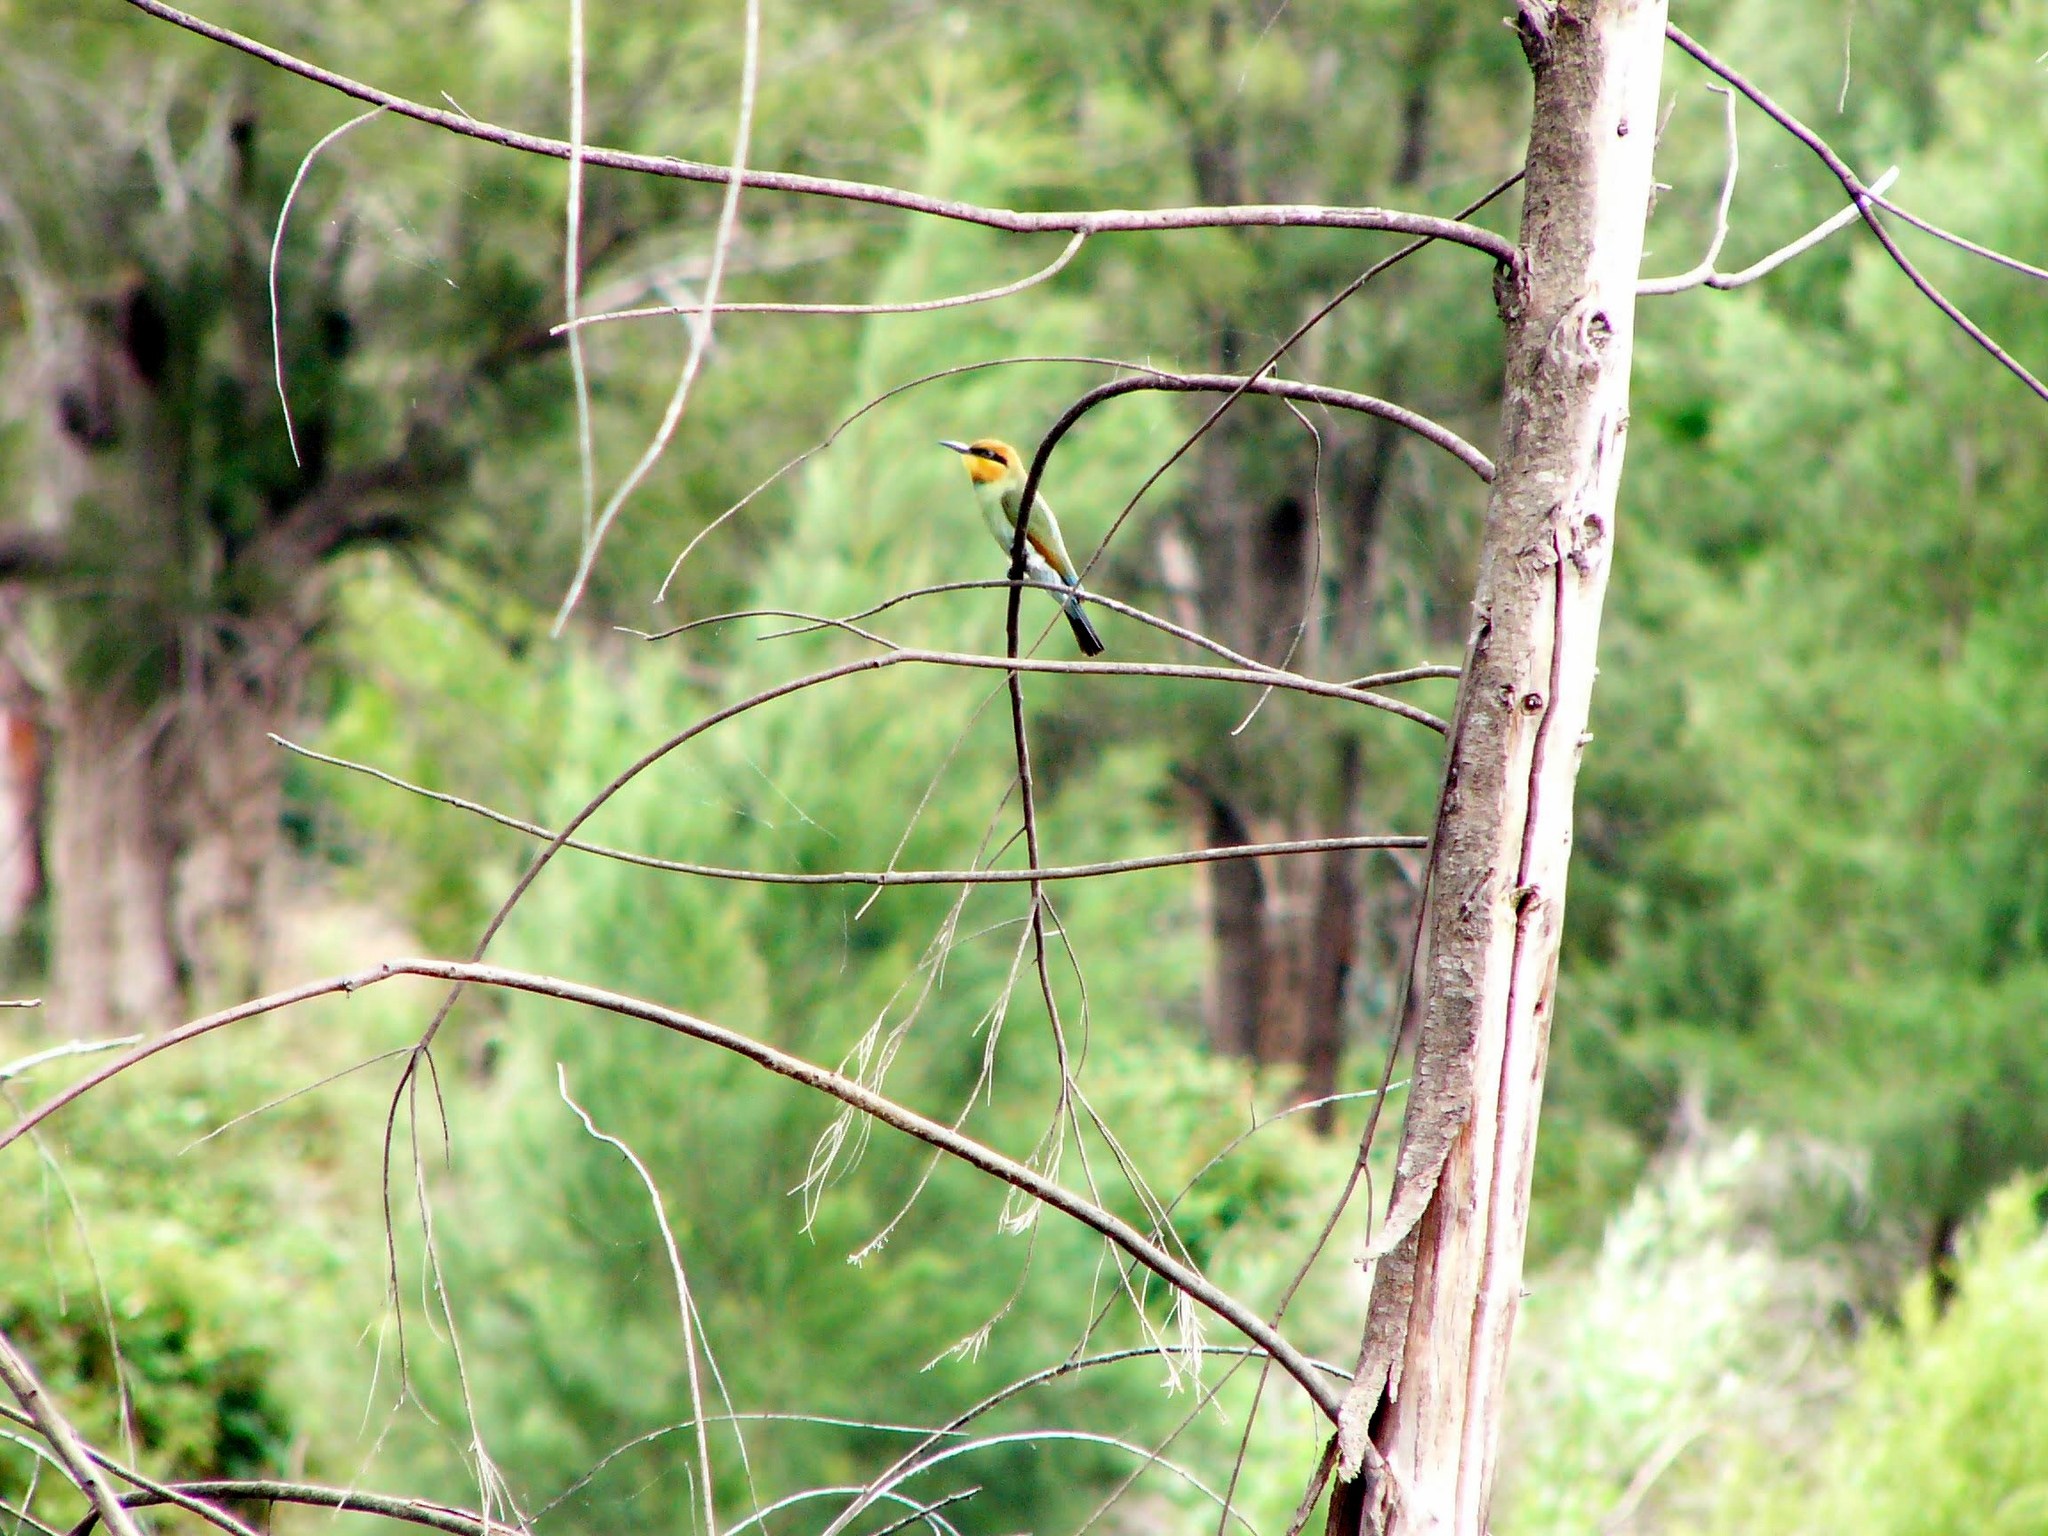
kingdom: Animalia
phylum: Chordata
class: Aves
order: Coraciiformes
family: Meropidae
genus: Merops
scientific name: Merops ornatus
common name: Rainbow bee-eater
